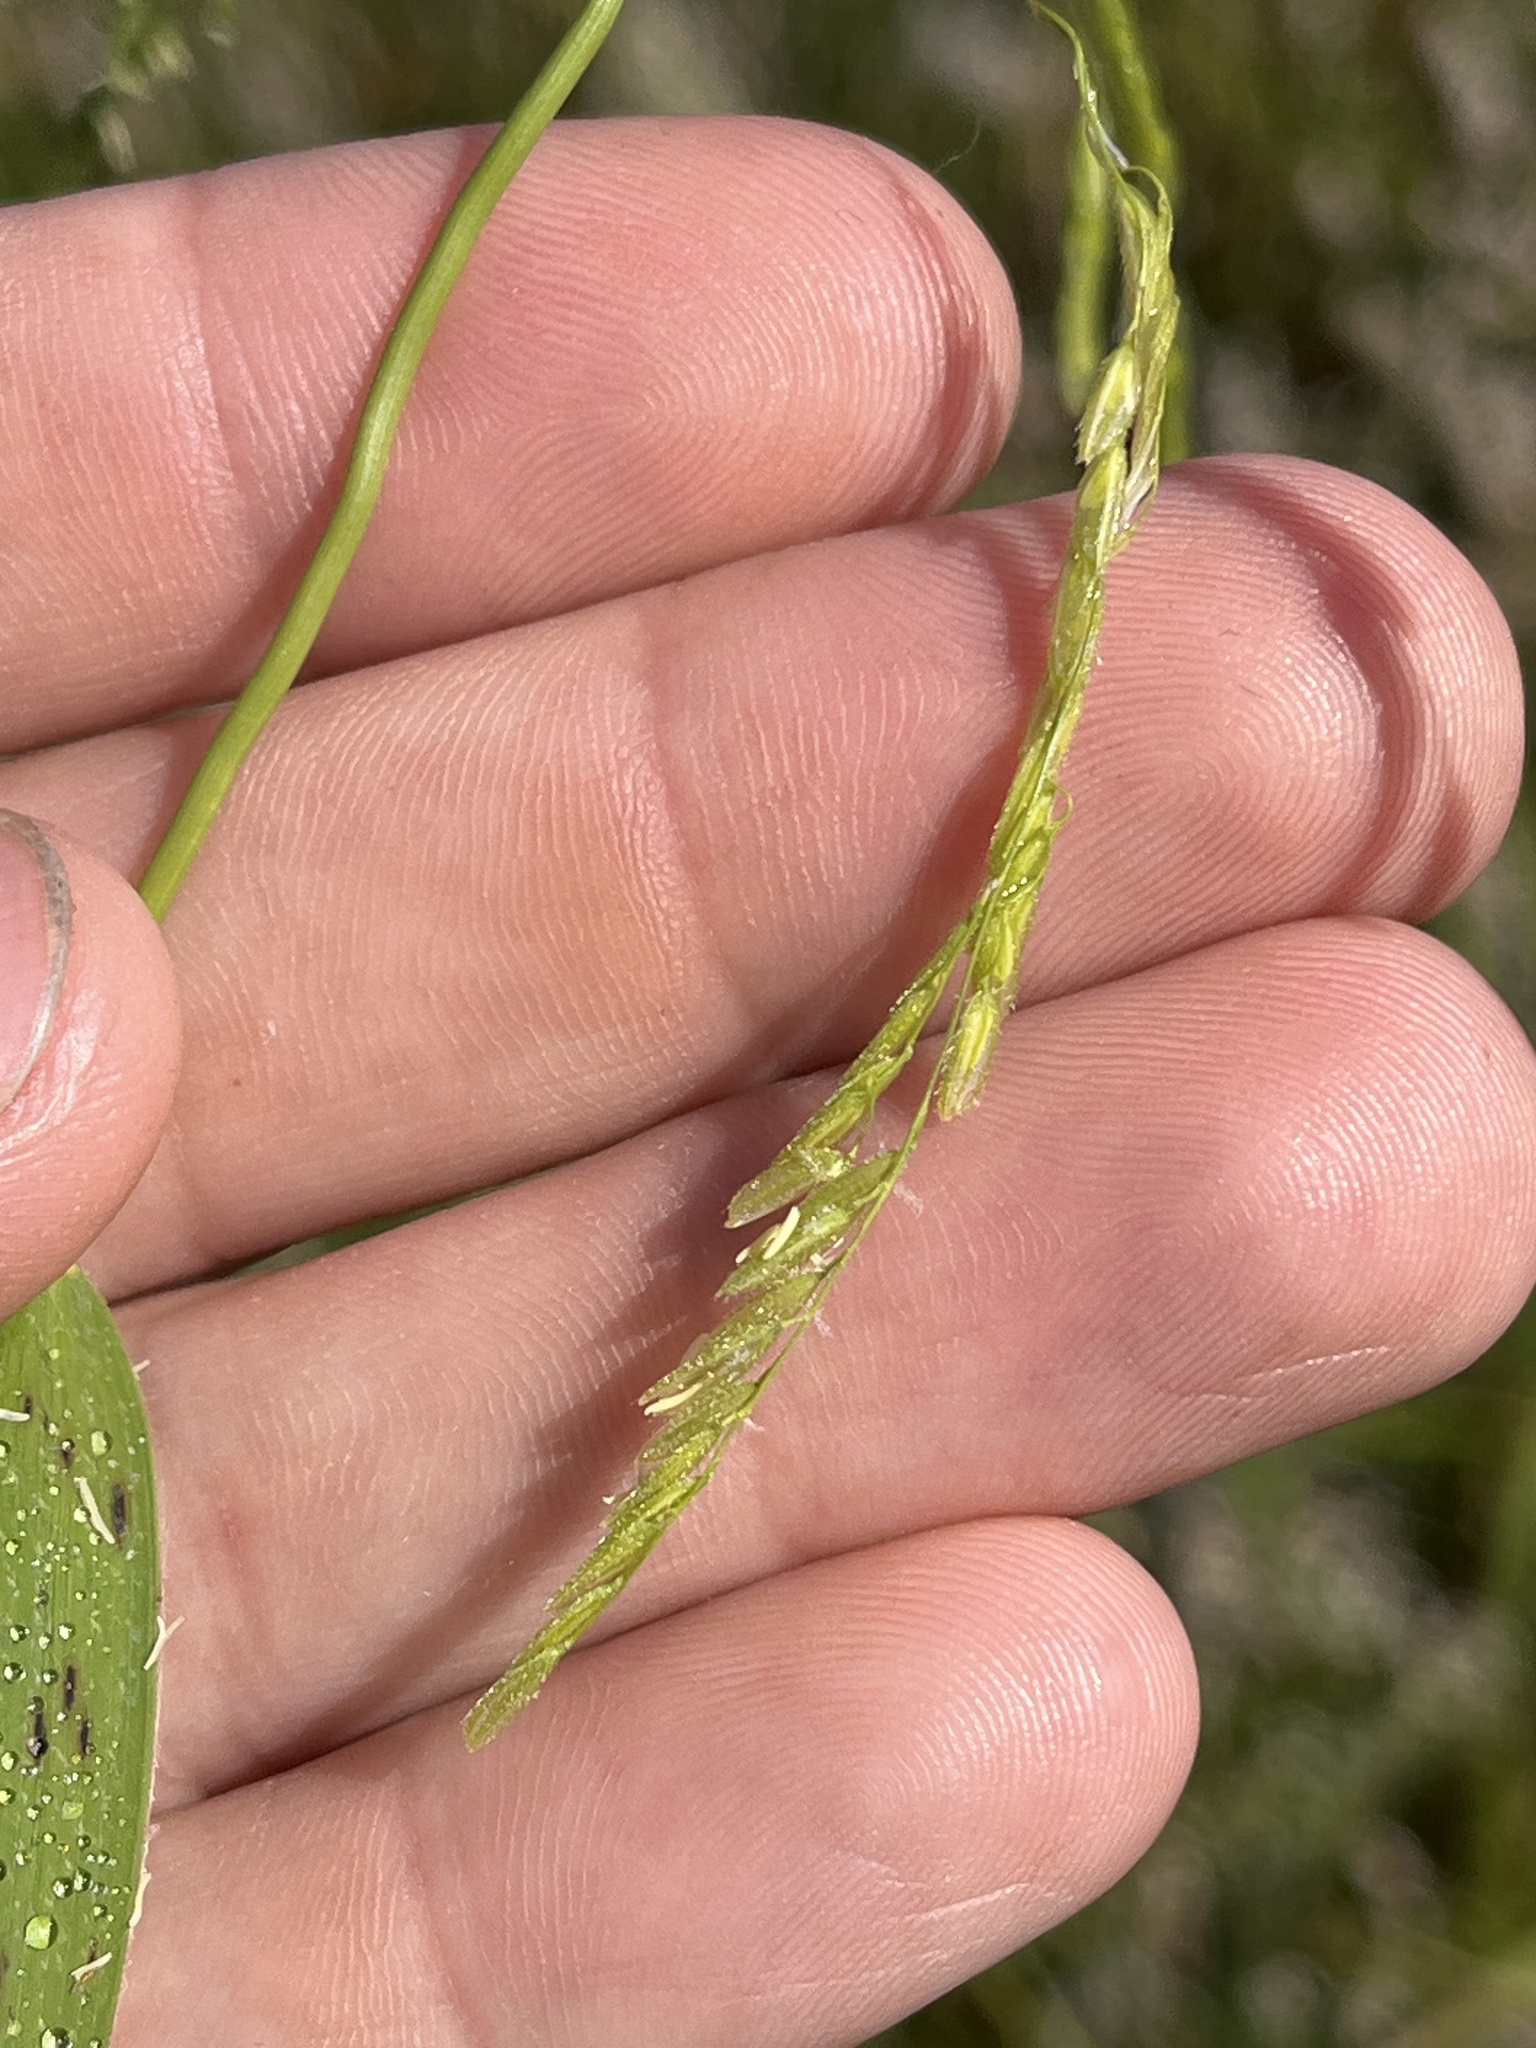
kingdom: Plantae
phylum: Tracheophyta
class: Liliopsida
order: Poales
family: Poaceae
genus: Leersia
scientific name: Leersia oryzoides
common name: Cut-grass
